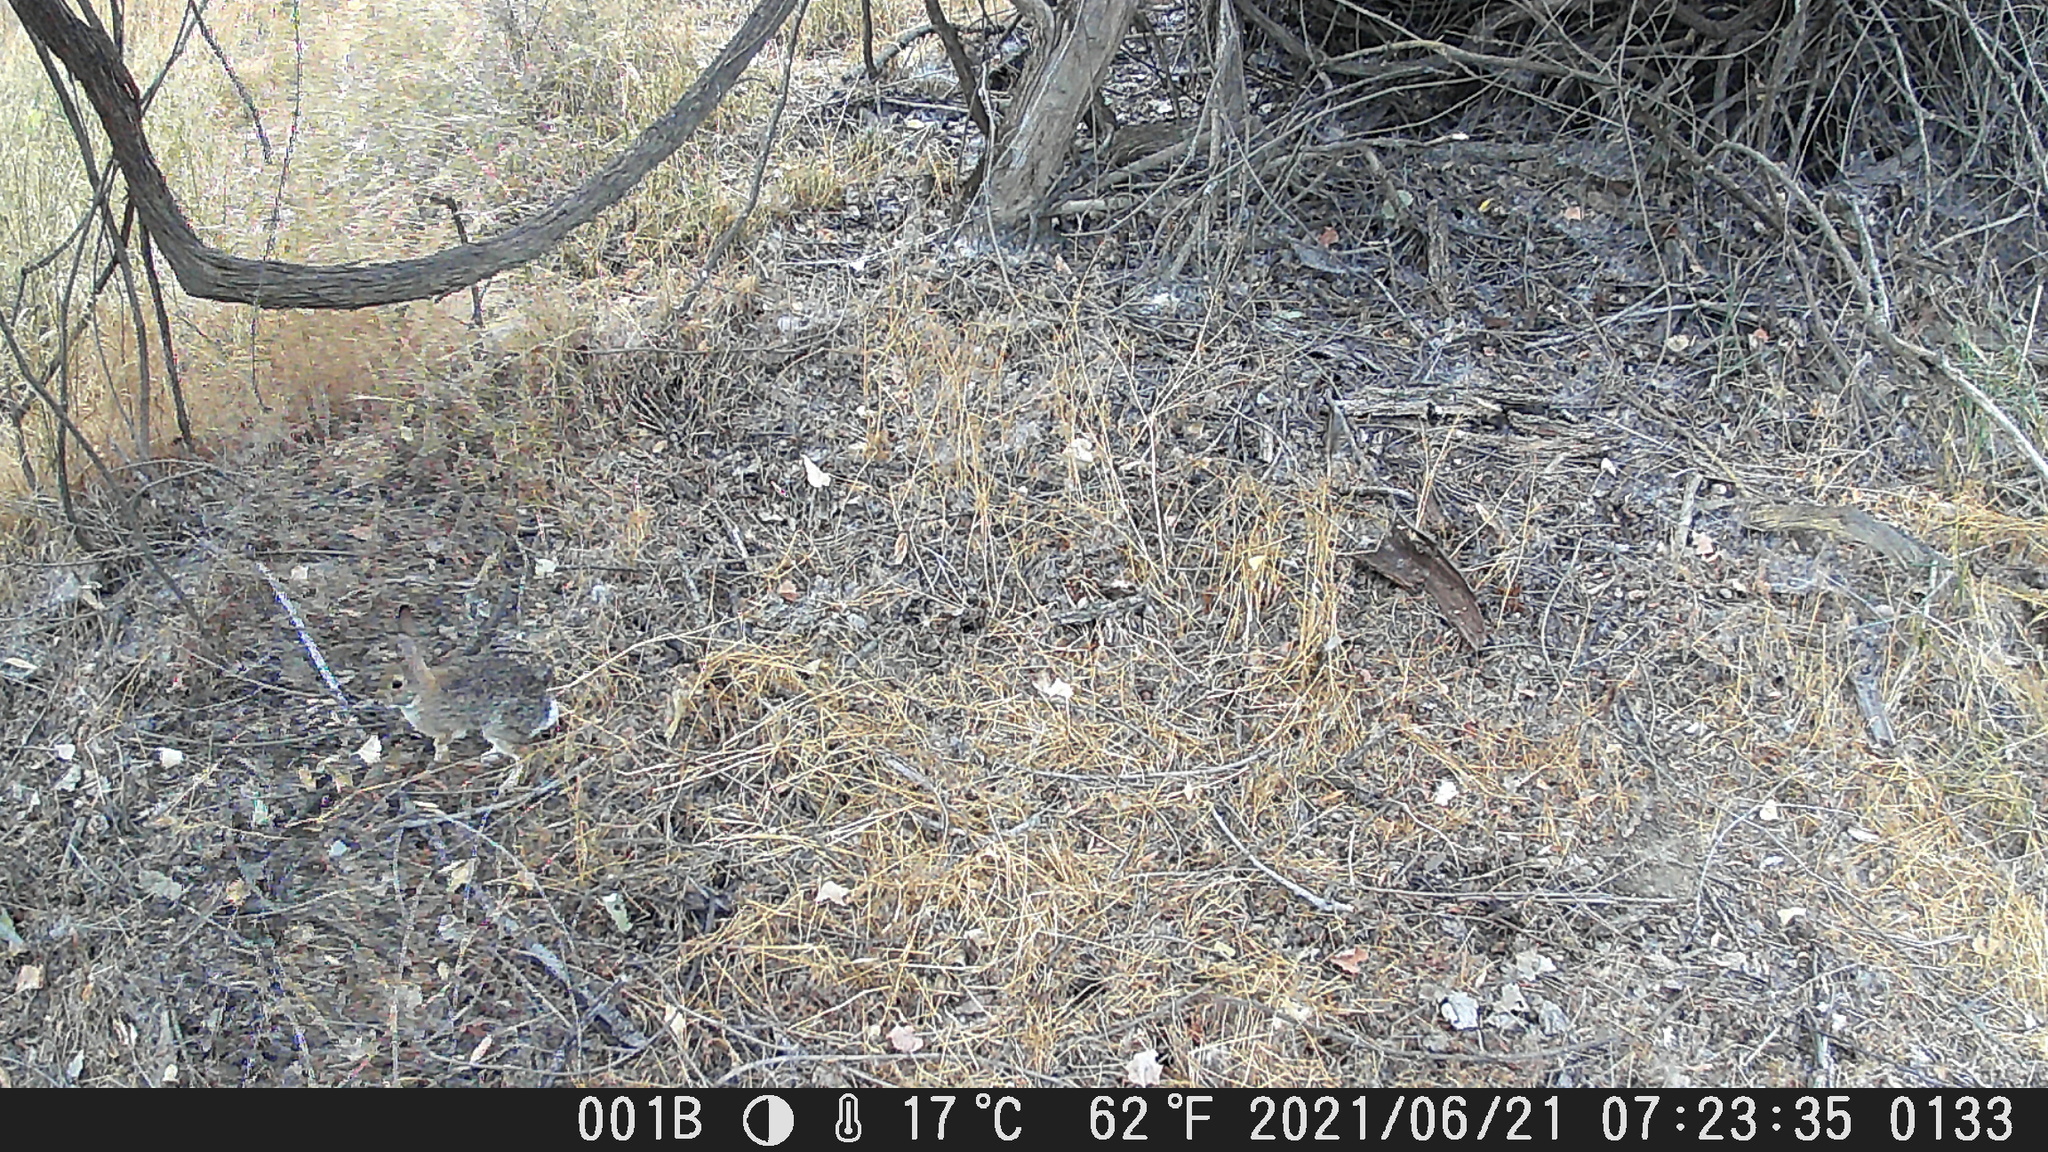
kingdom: Animalia
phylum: Chordata
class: Mammalia
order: Lagomorpha
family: Leporidae
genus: Sylvilagus
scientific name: Sylvilagus audubonii
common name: Desert cottontail
